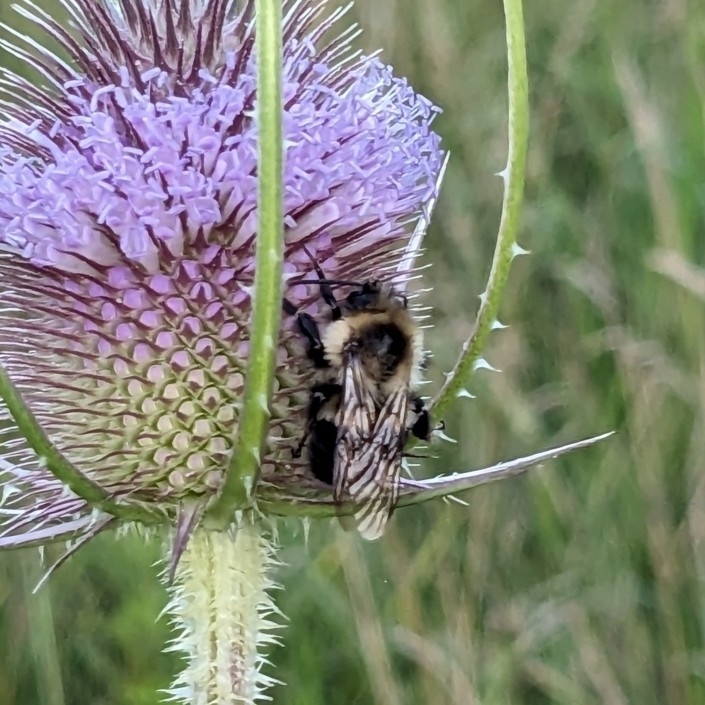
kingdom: Animalia
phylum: Arthropoda
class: Insecta
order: Hymenoptera
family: Apidae
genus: Bombus
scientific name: Bombus impatiens
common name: Common eastern bumble bee
